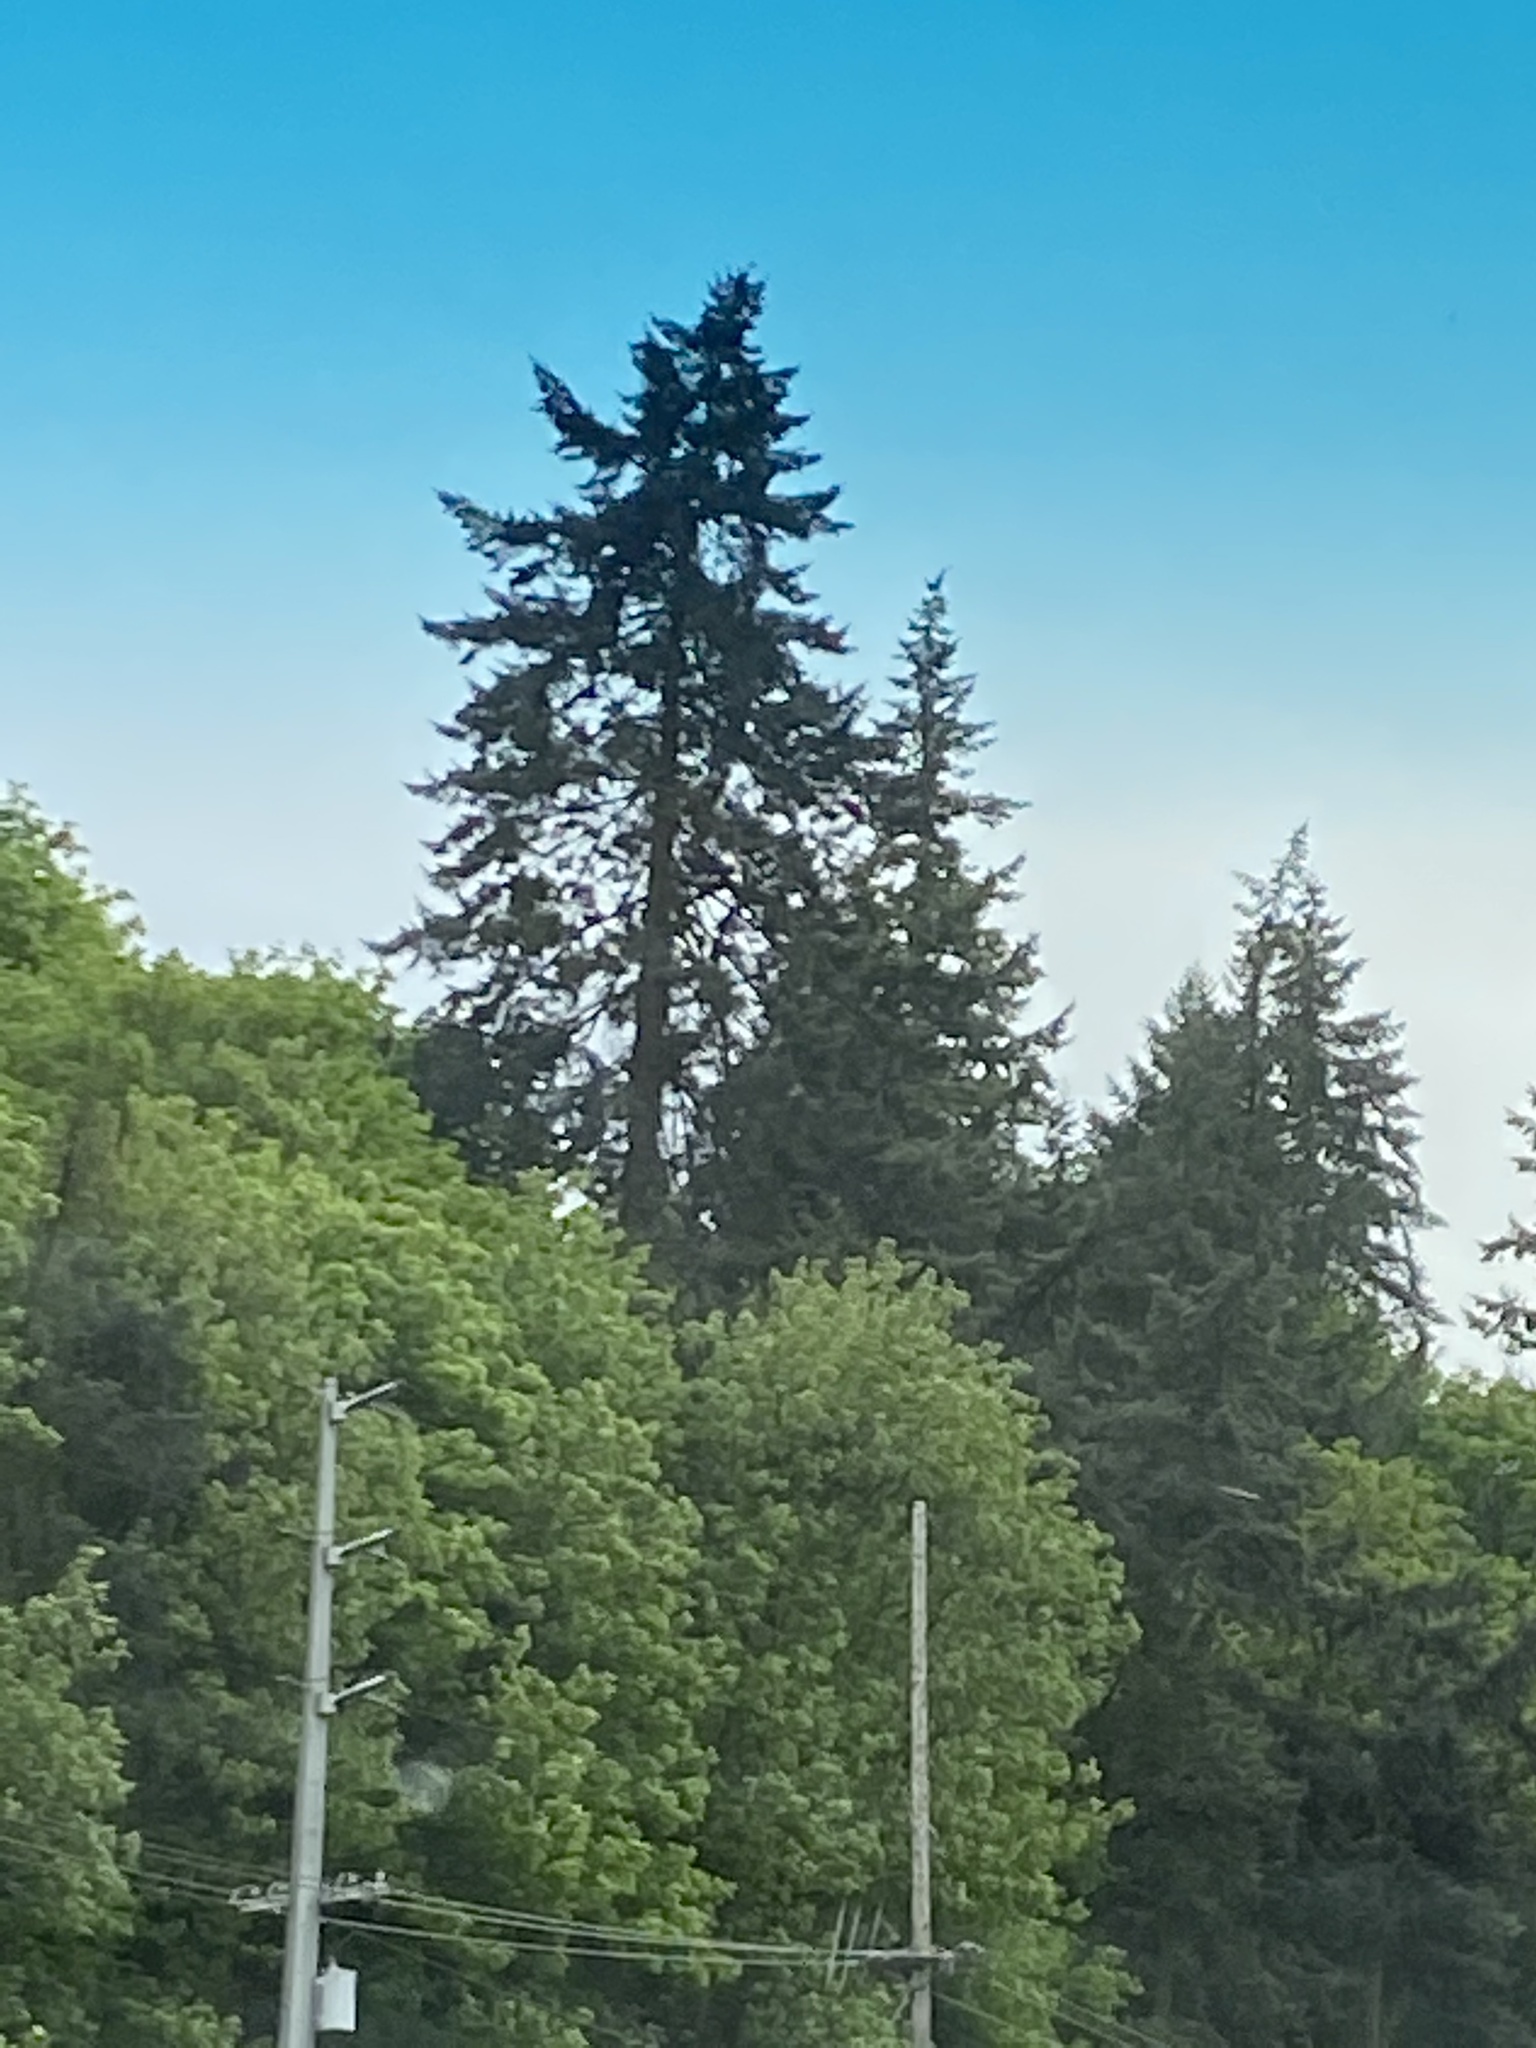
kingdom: Plantae
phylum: Tracheophyta
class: Pinopsida
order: Pinales
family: Pinaceae
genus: Pseudotsuga
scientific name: Pseudotsuga menziesii
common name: Douglas fir
